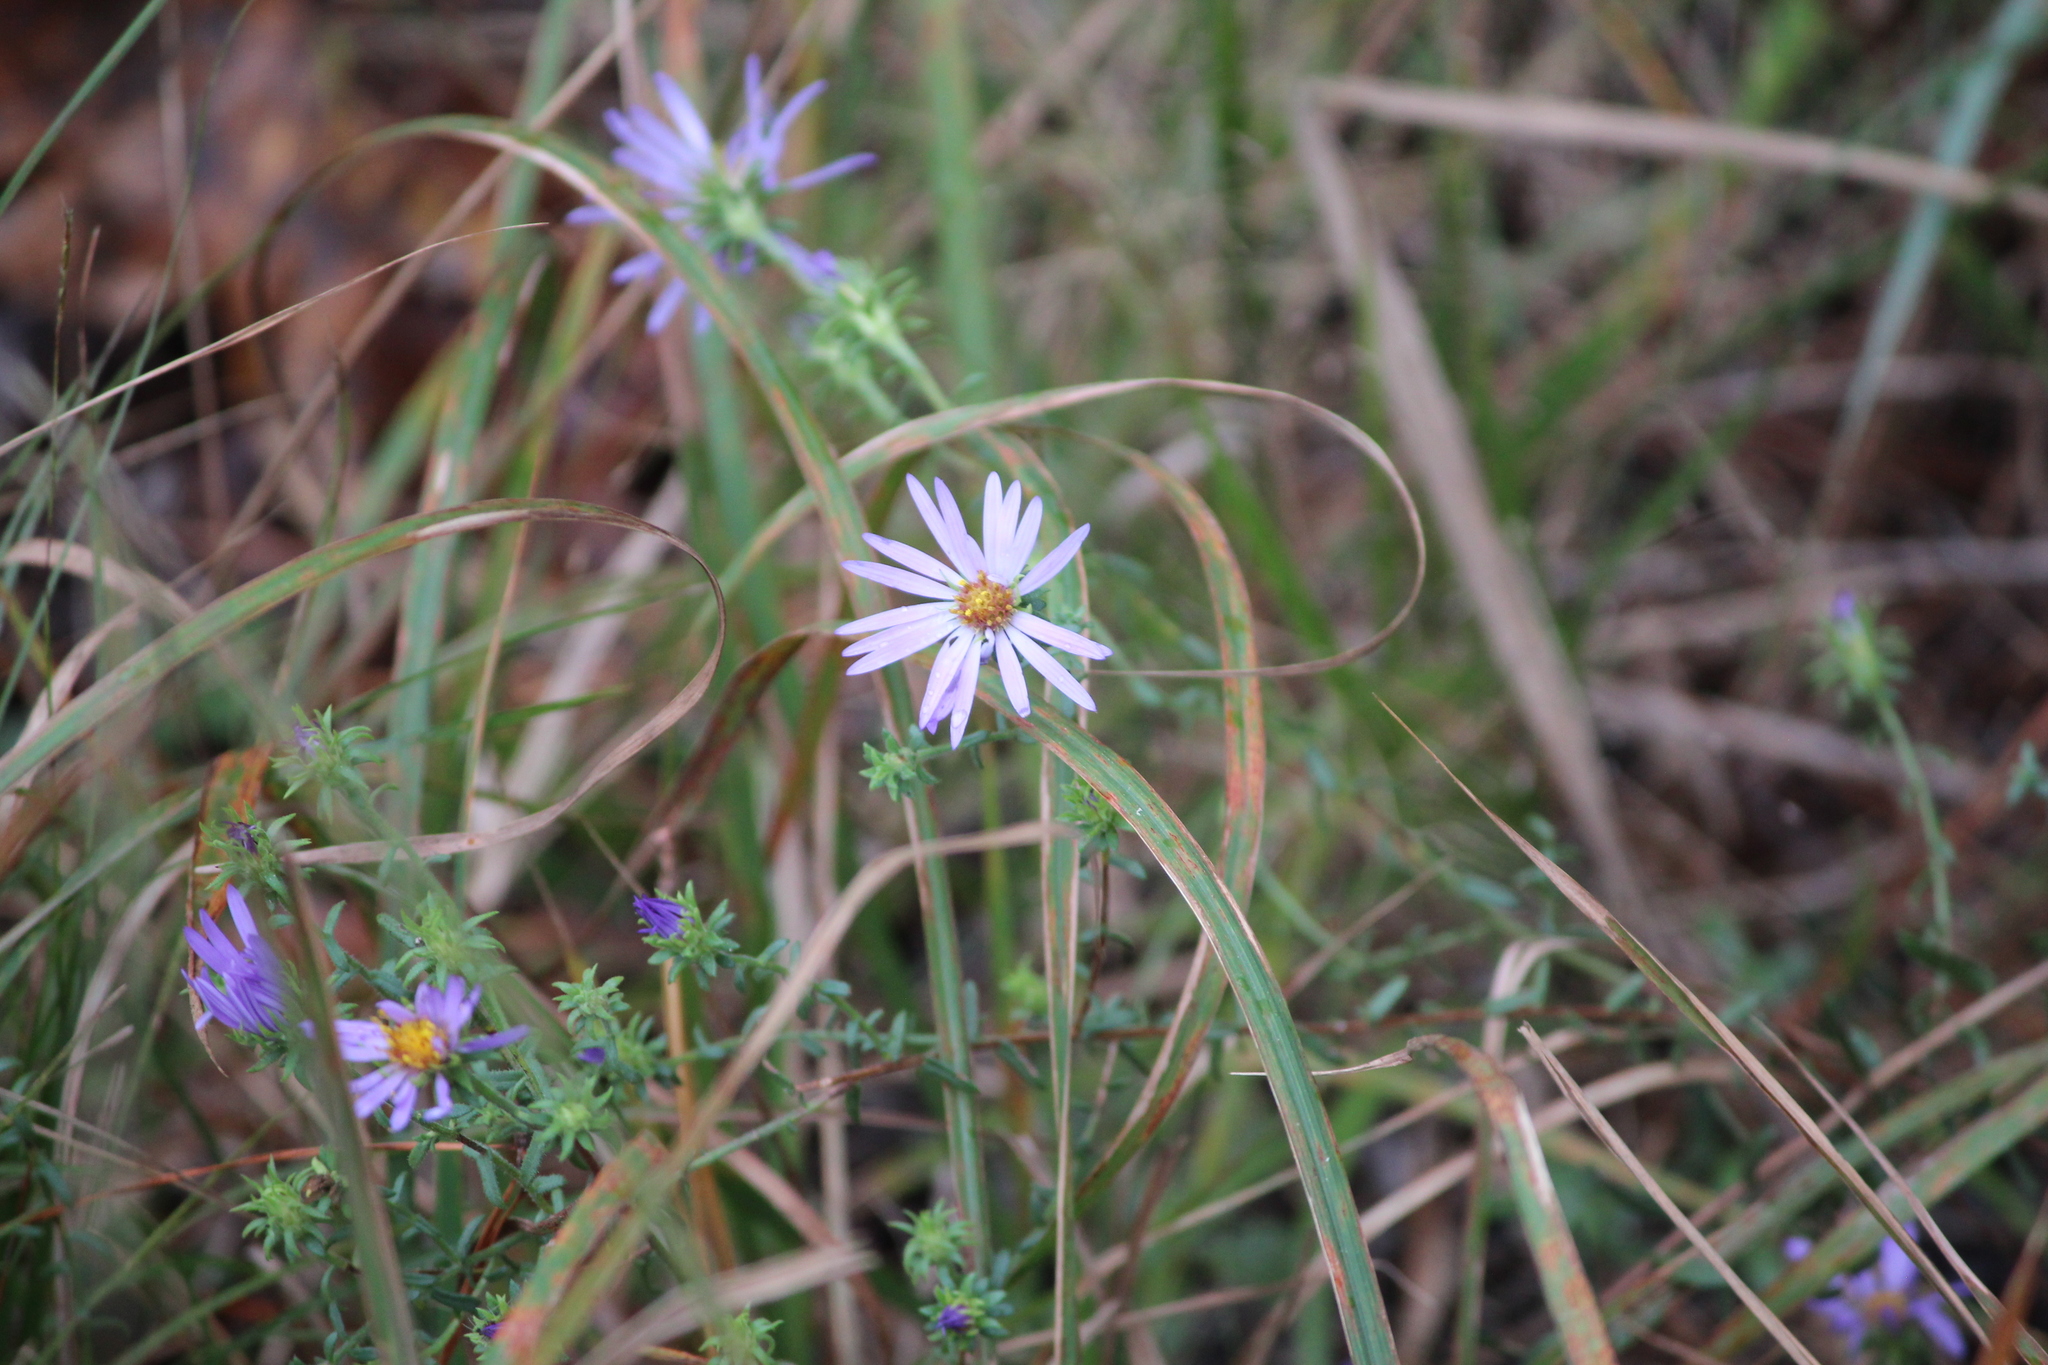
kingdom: Plantae
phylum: Tracheophyta
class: Magnoliopsida
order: Asterales
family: Asteraceae
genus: Symphyotrichum
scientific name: Symphyotrichum grandiflorum
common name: Big-head aster
